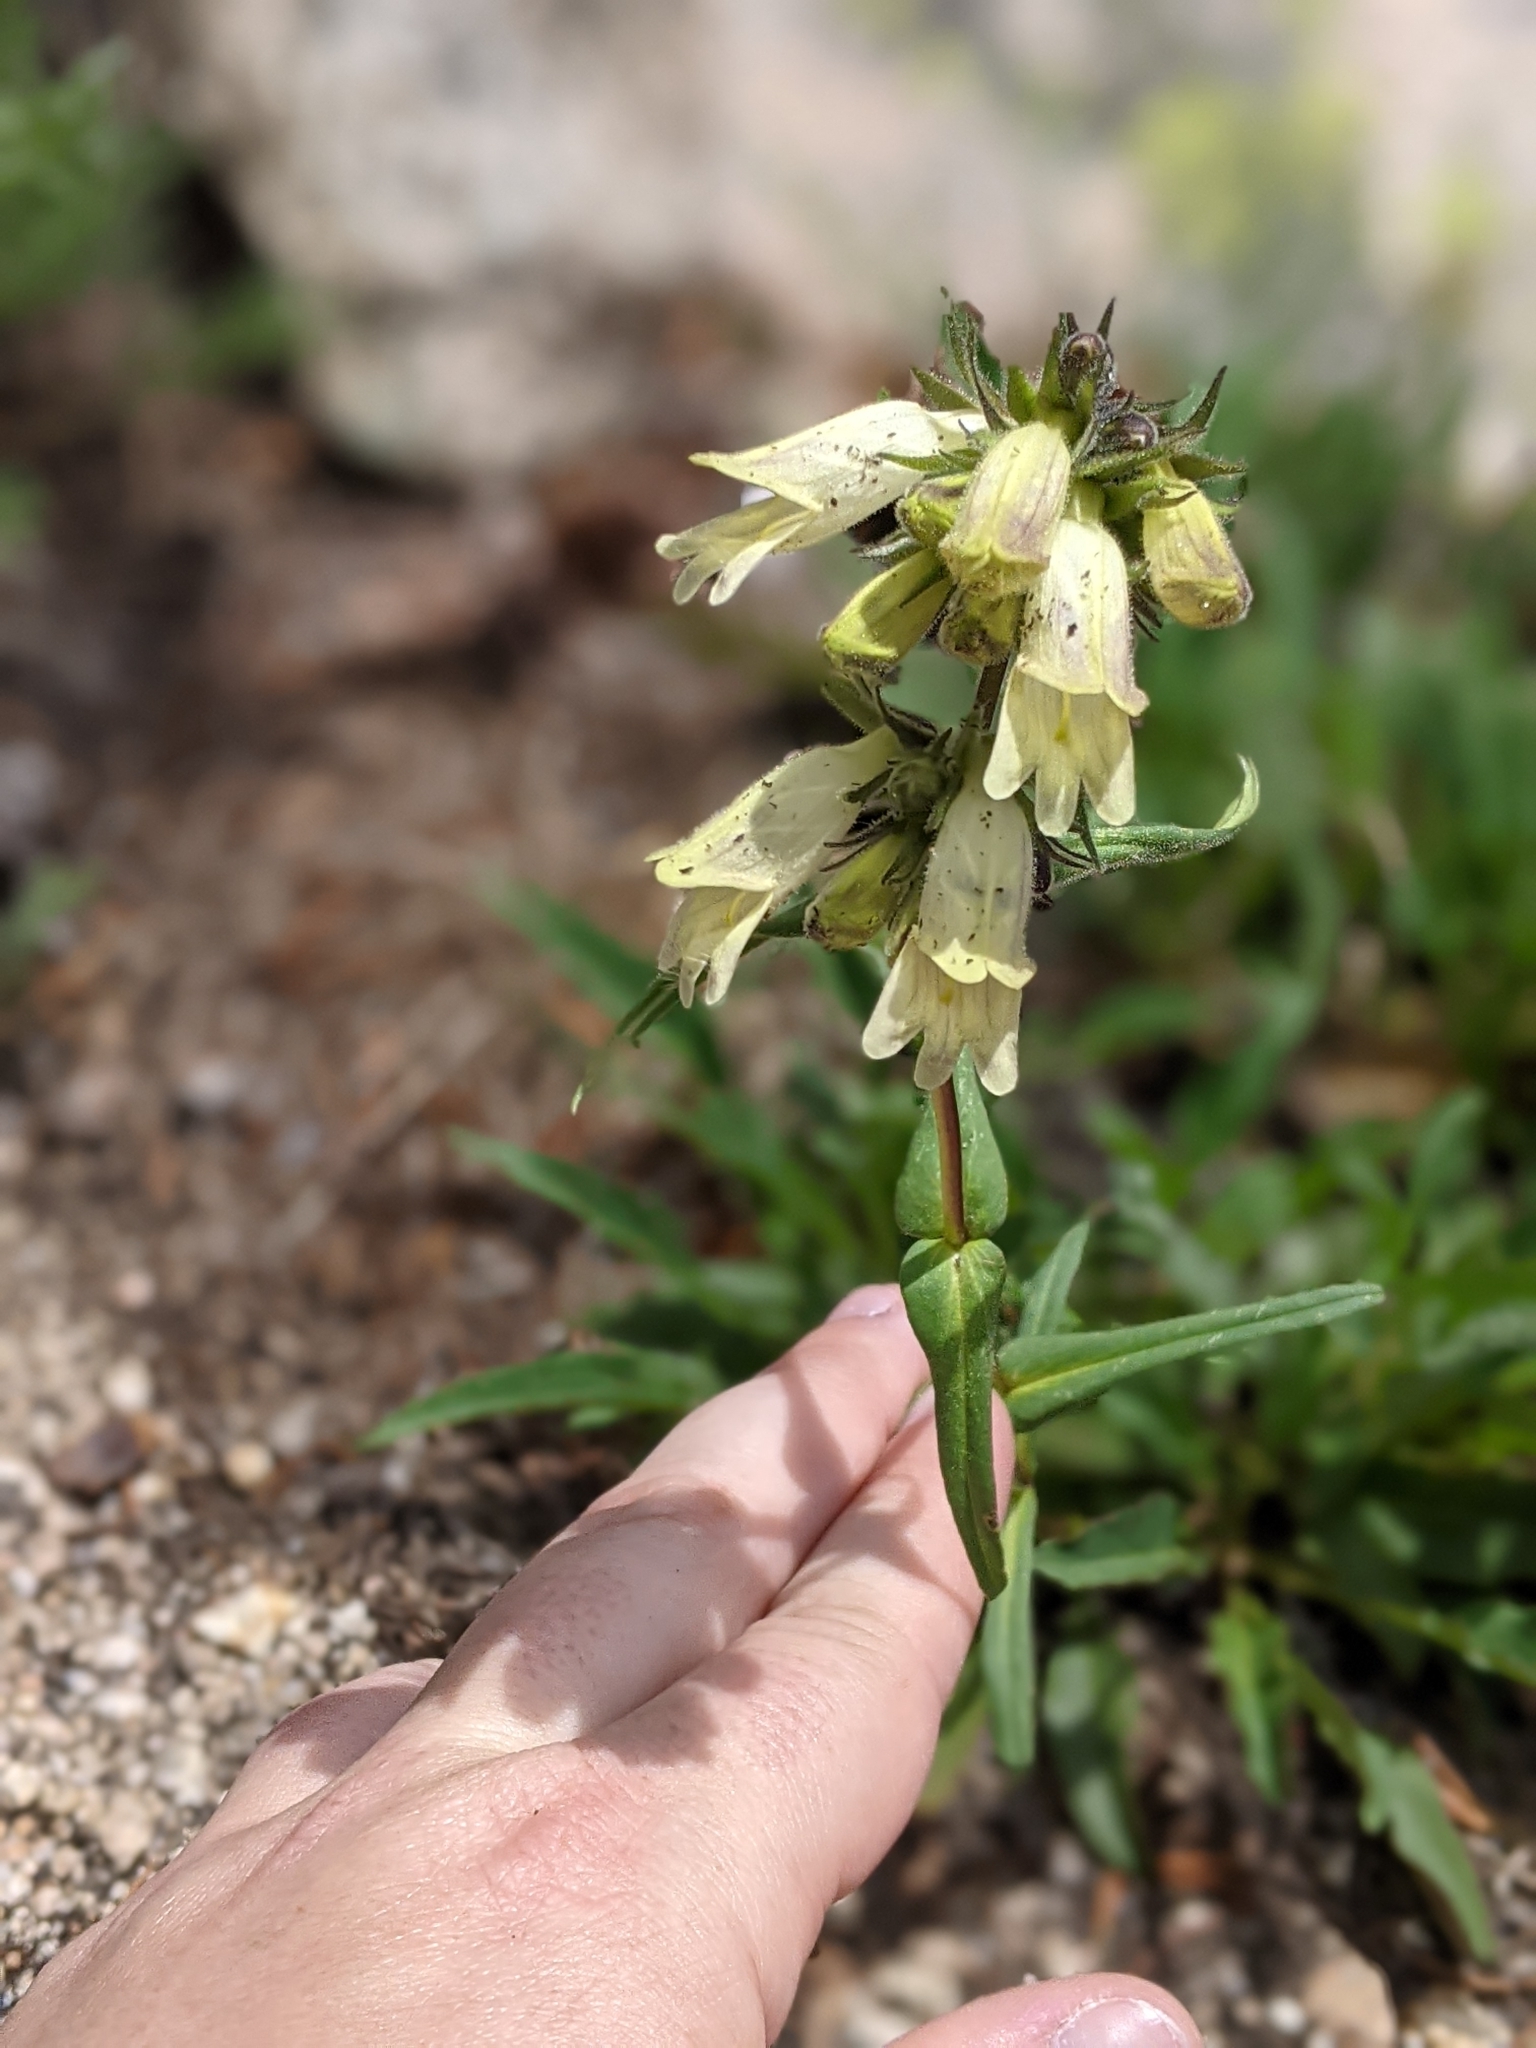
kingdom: Plantae
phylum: Tracheophyta
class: Magnoliopsida
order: Lamiales
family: Plantaginaceae
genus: Penstemon
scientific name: Penstemon whippleanus
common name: Whipple's penstemon
